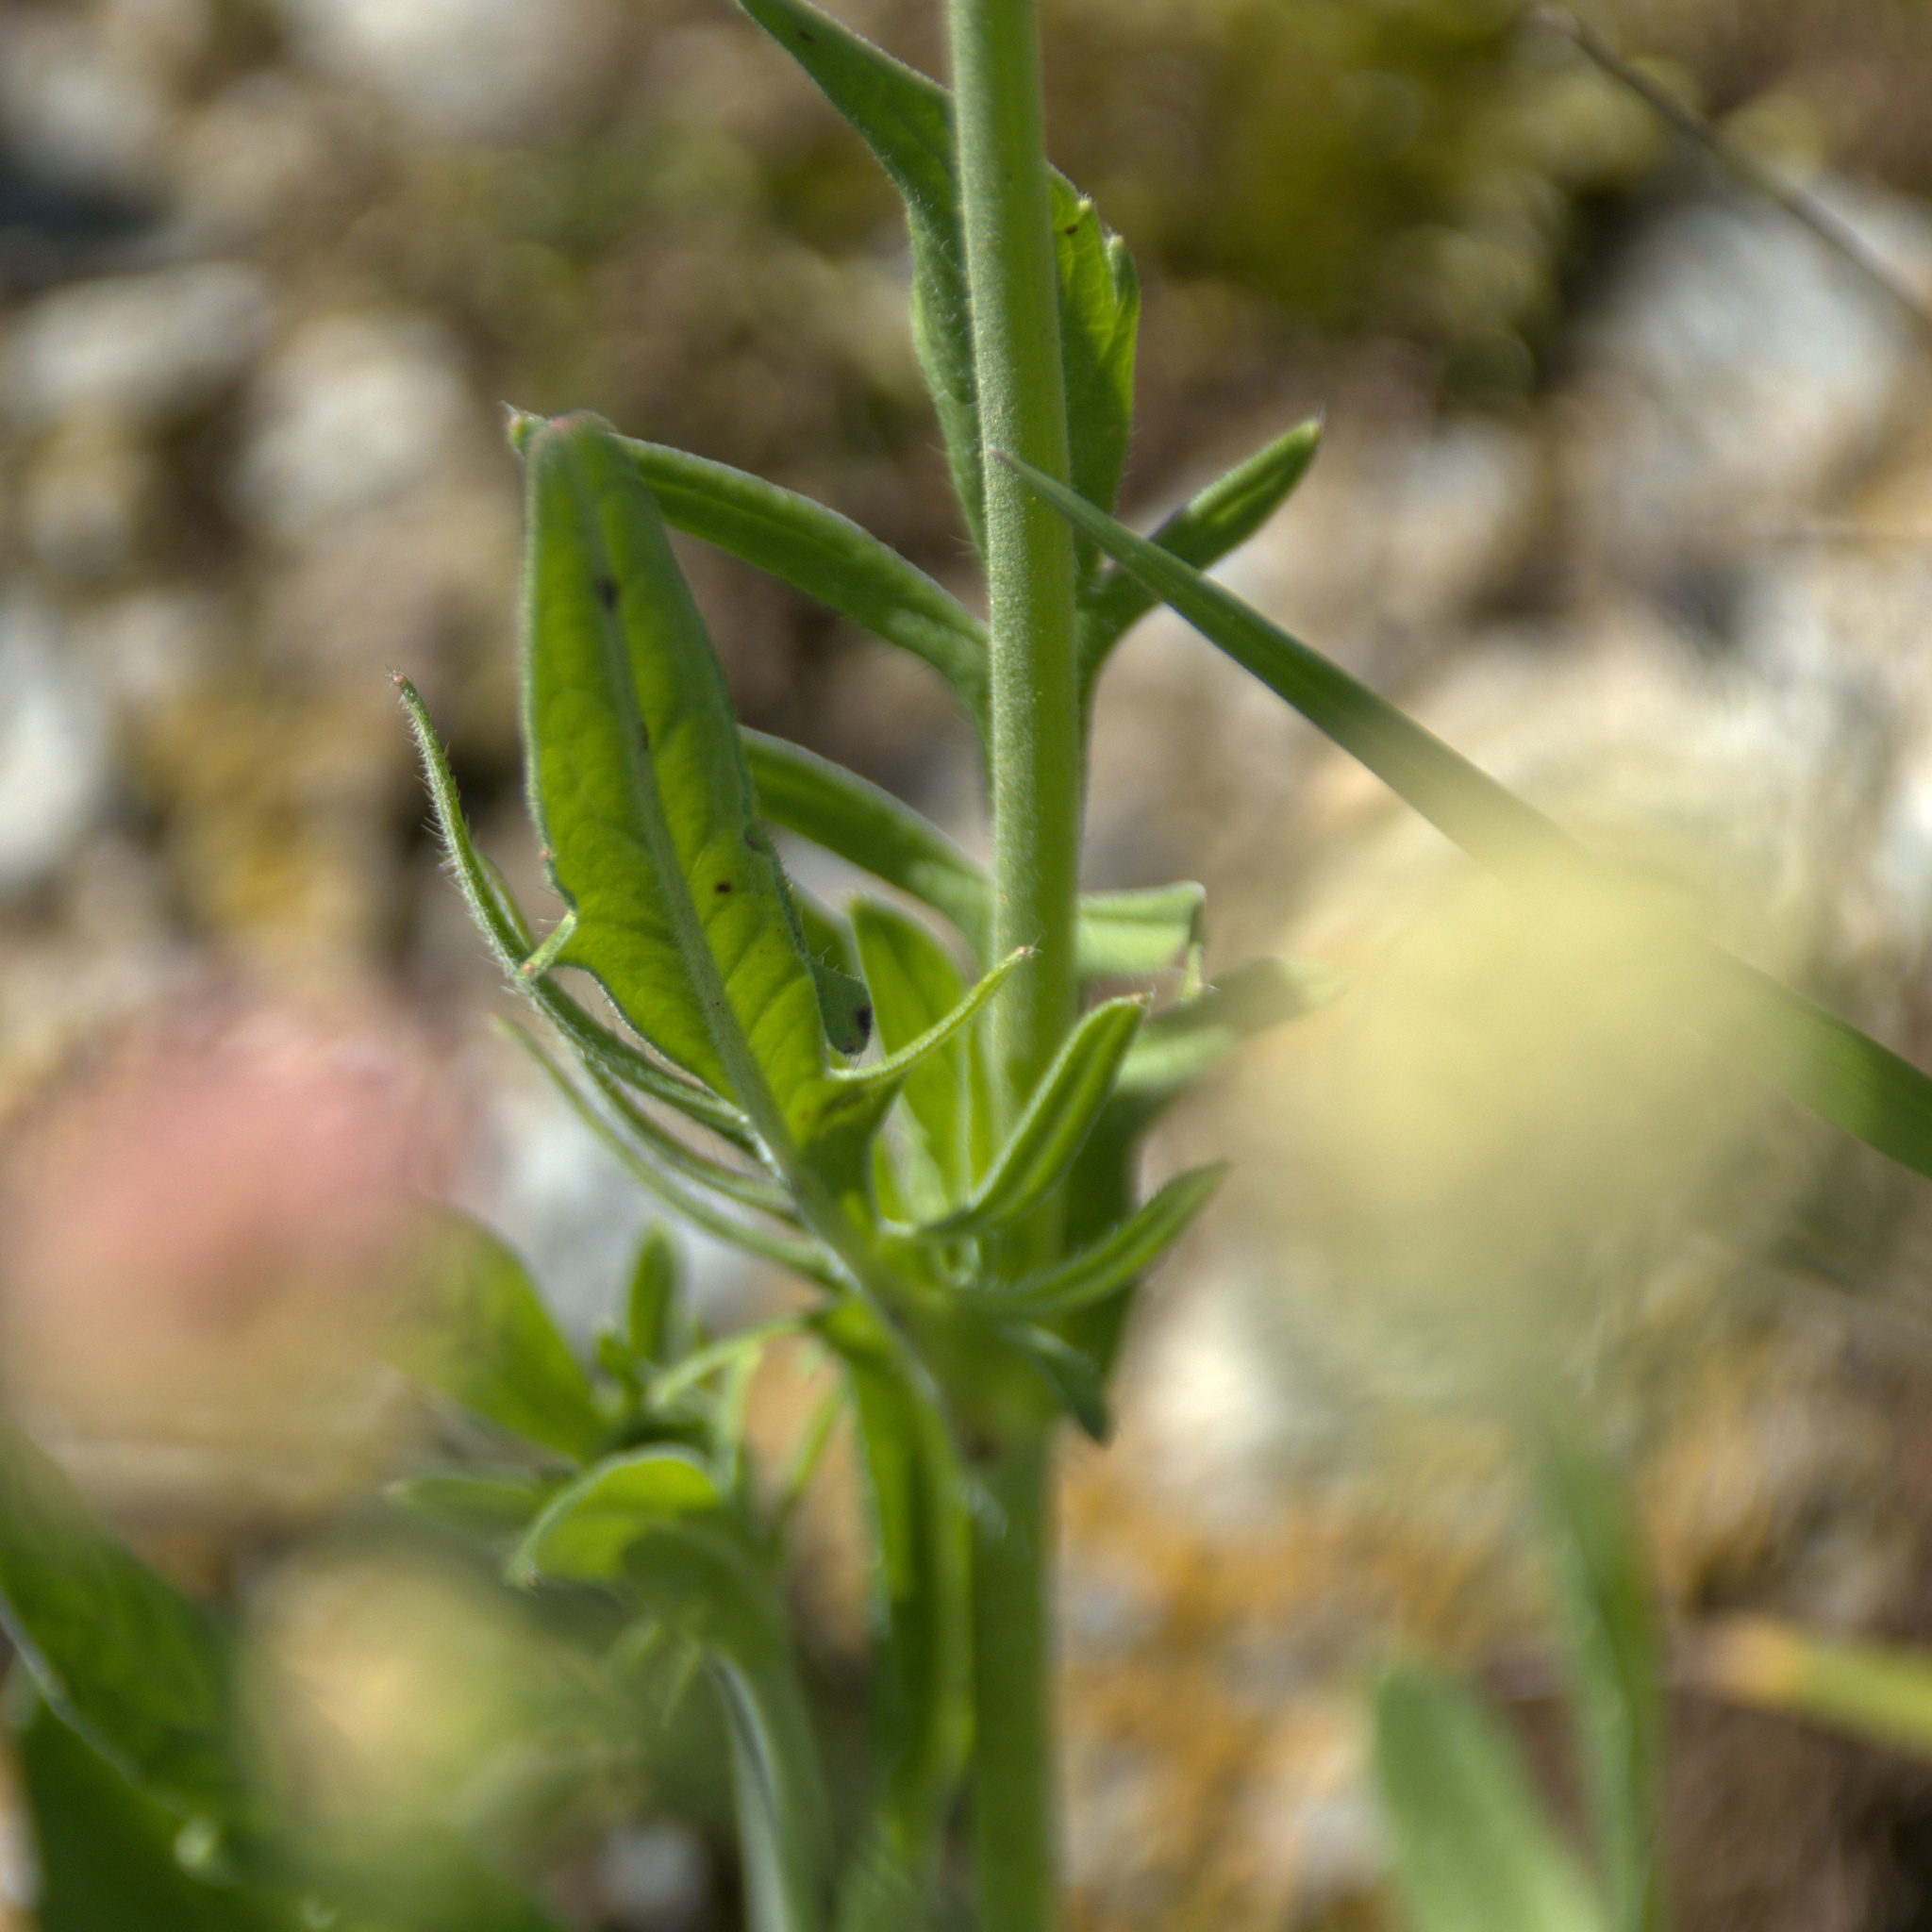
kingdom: Plantae
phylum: Tracheophyta
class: Magnoliopsida
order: Dipsacales
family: Caprifoliaceae
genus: Knautia
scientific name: Knautia arvensis
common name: Field scabiosa
